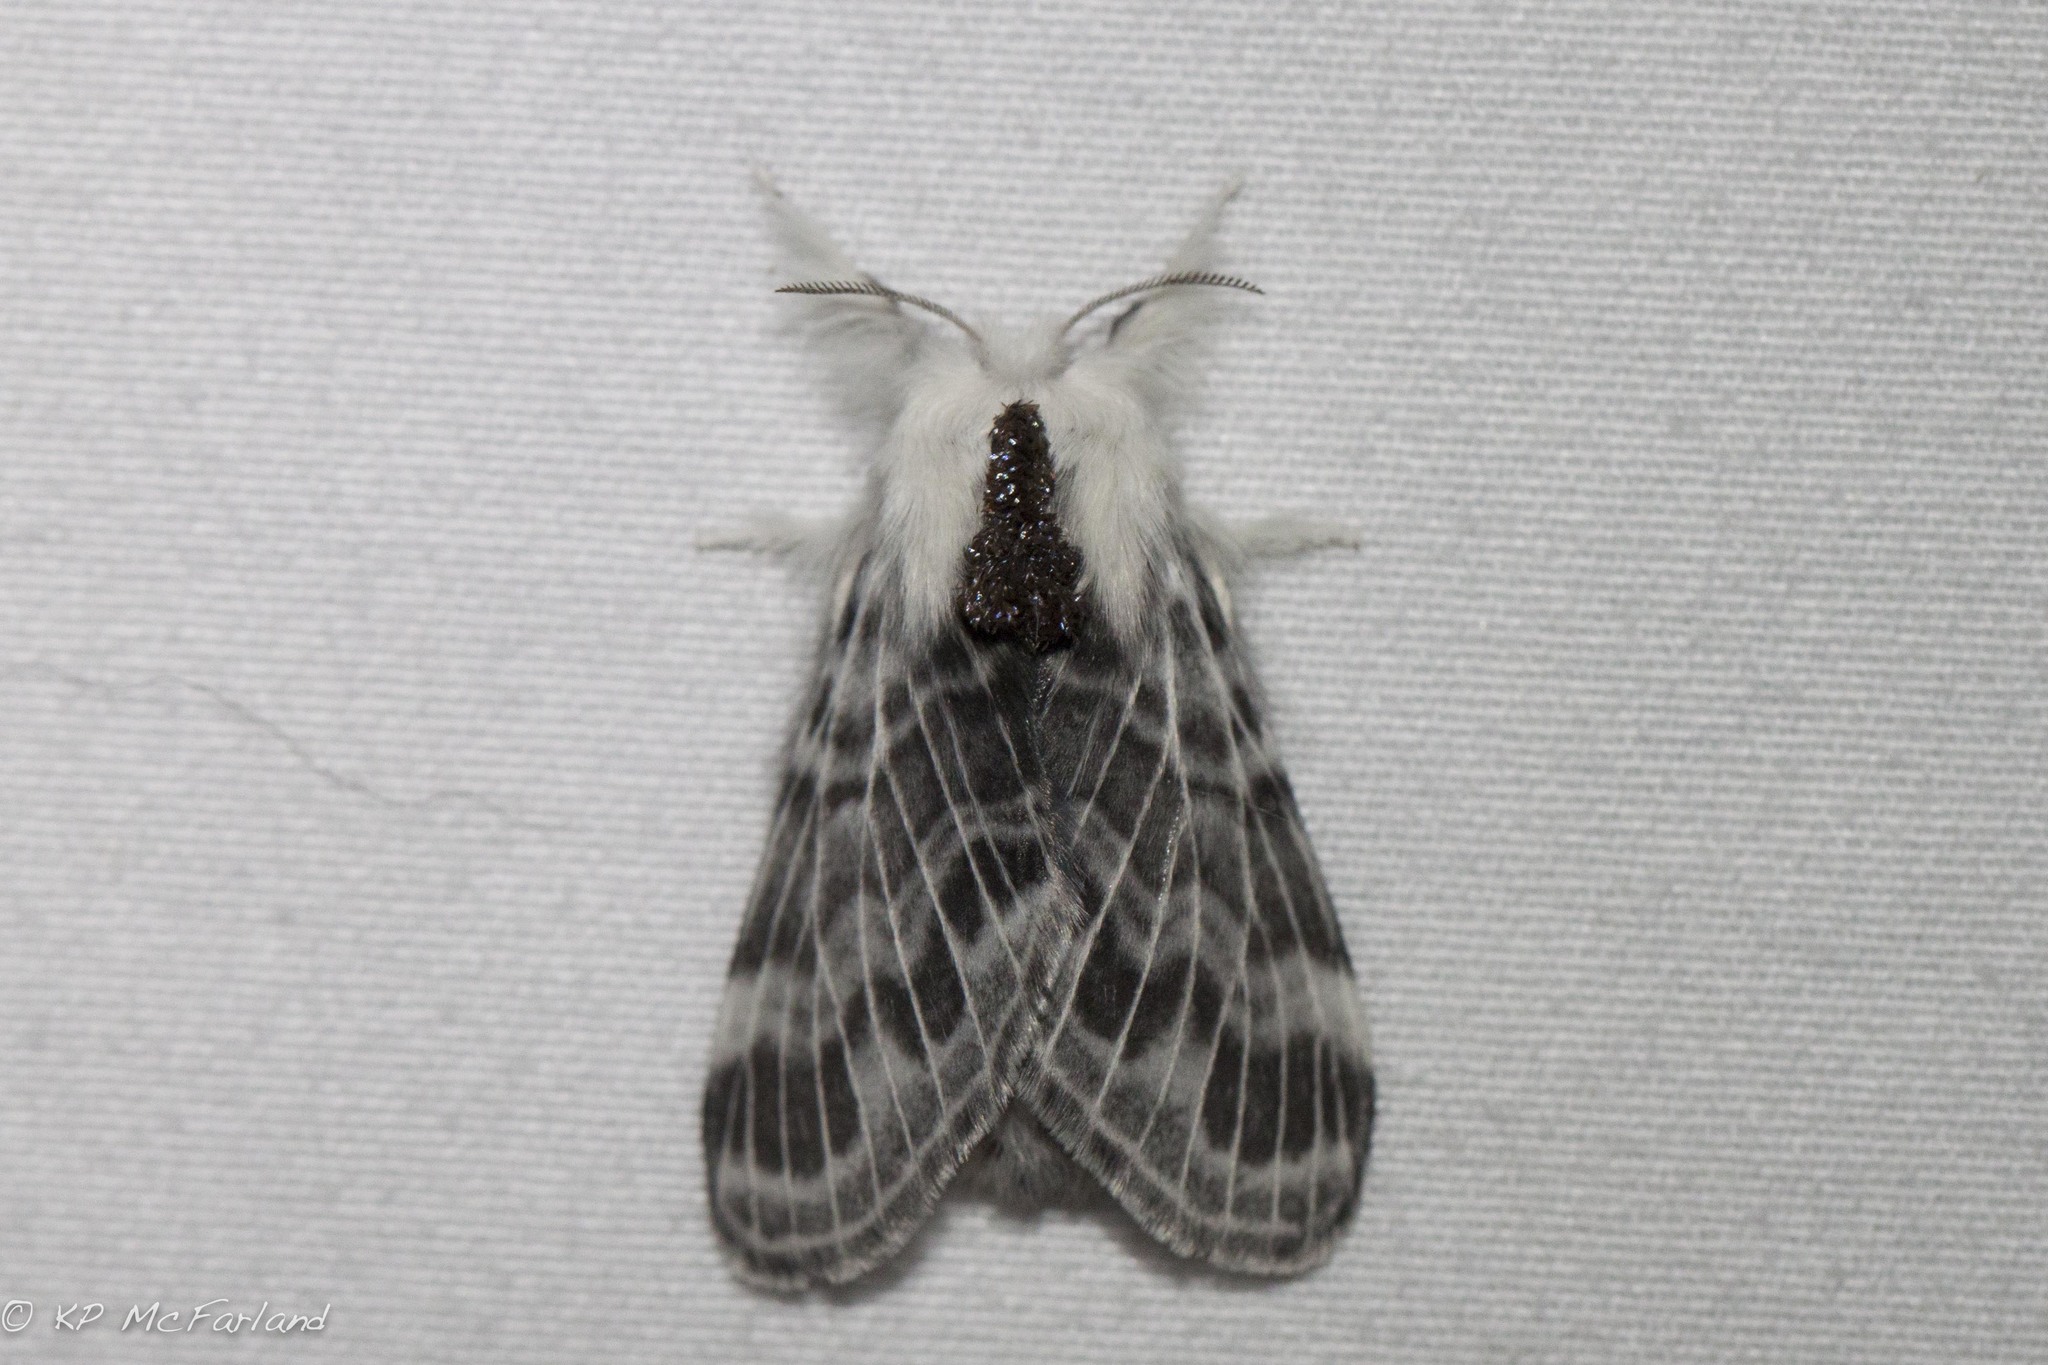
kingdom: Animalia
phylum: Arthropoda
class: Insecta
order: Lepidoptera
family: Lasiocampidae
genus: Tolype
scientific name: Tolype laricis
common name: Larch tolype moth
